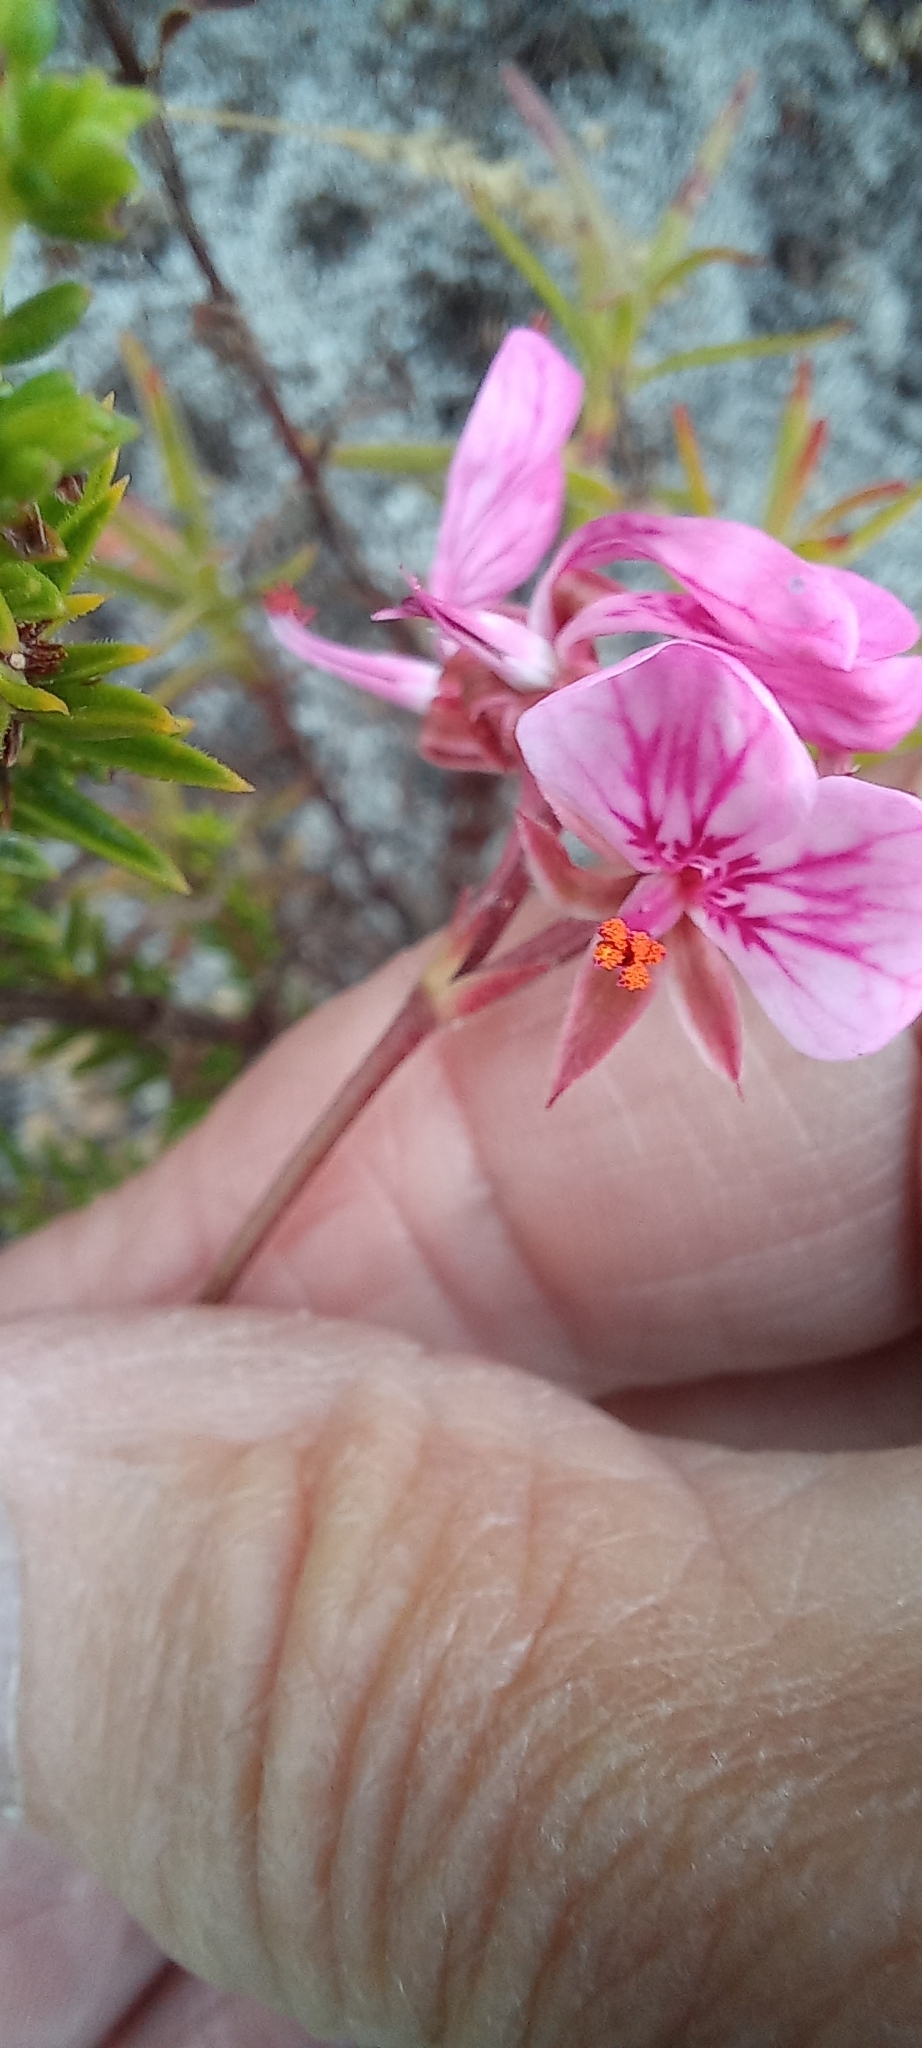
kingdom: Plantae
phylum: Tracheophyta
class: Magnoliopsida
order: Geraniales
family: Geraniaceae
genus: Pelargonium
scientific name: Pelargonium dipetalum
